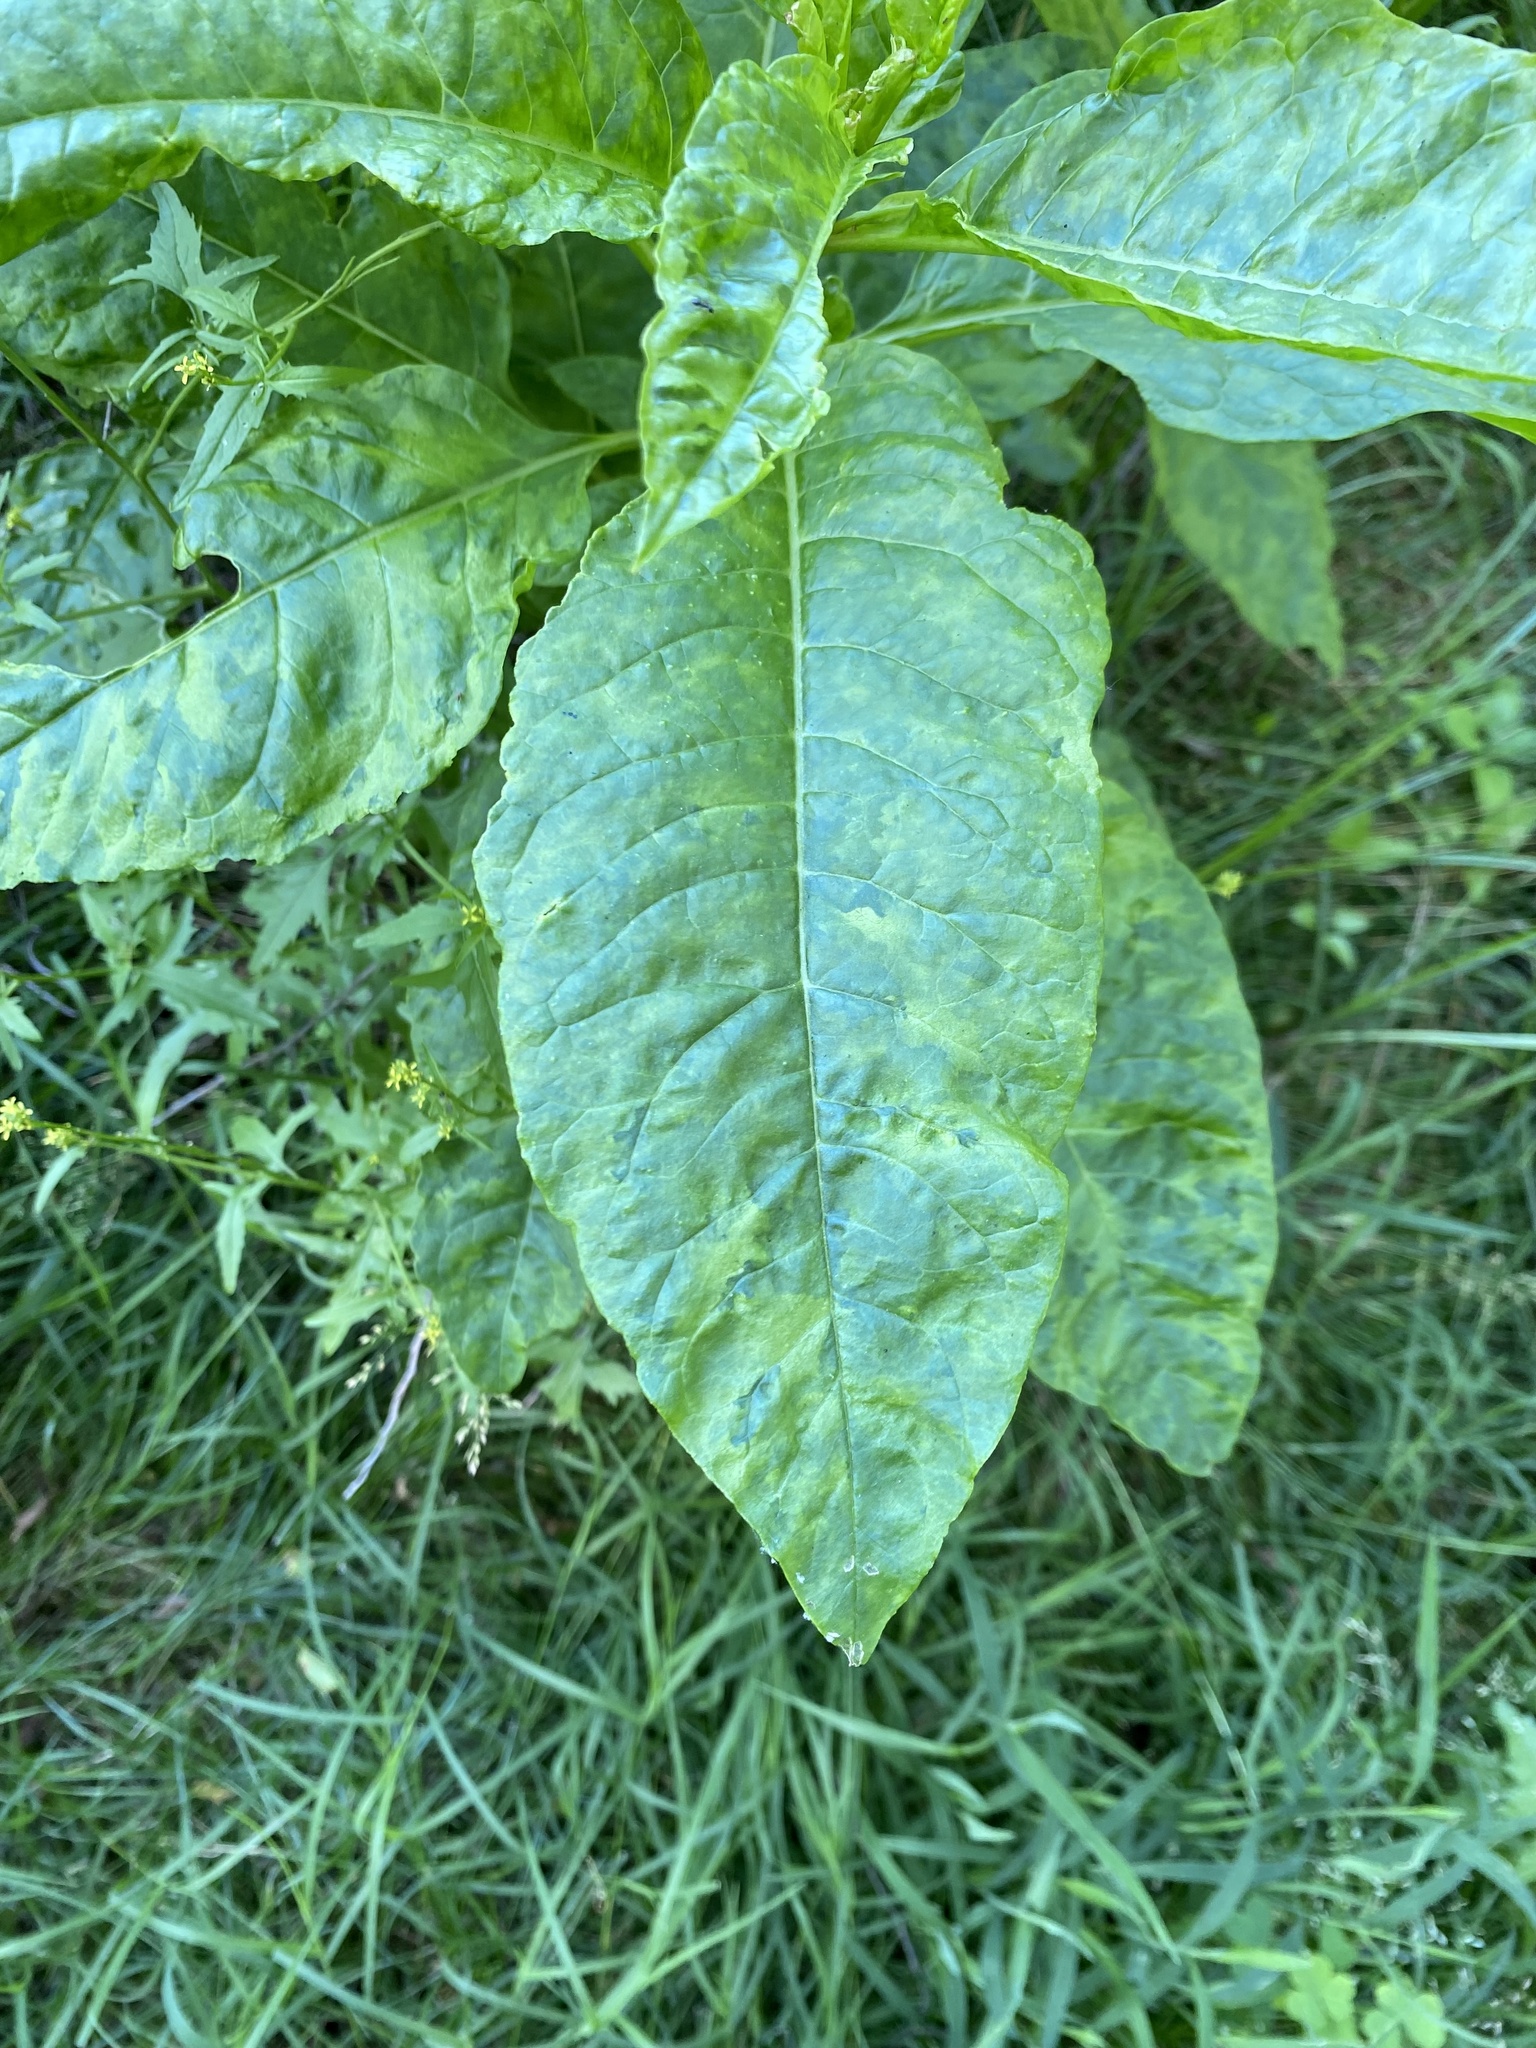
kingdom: Viruses
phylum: Pisuviricota
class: Stelpaviricetes
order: Patatavirales
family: Potyviridae
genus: Potyvirus
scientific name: Potyvirus Pokeweed mosaic virus
